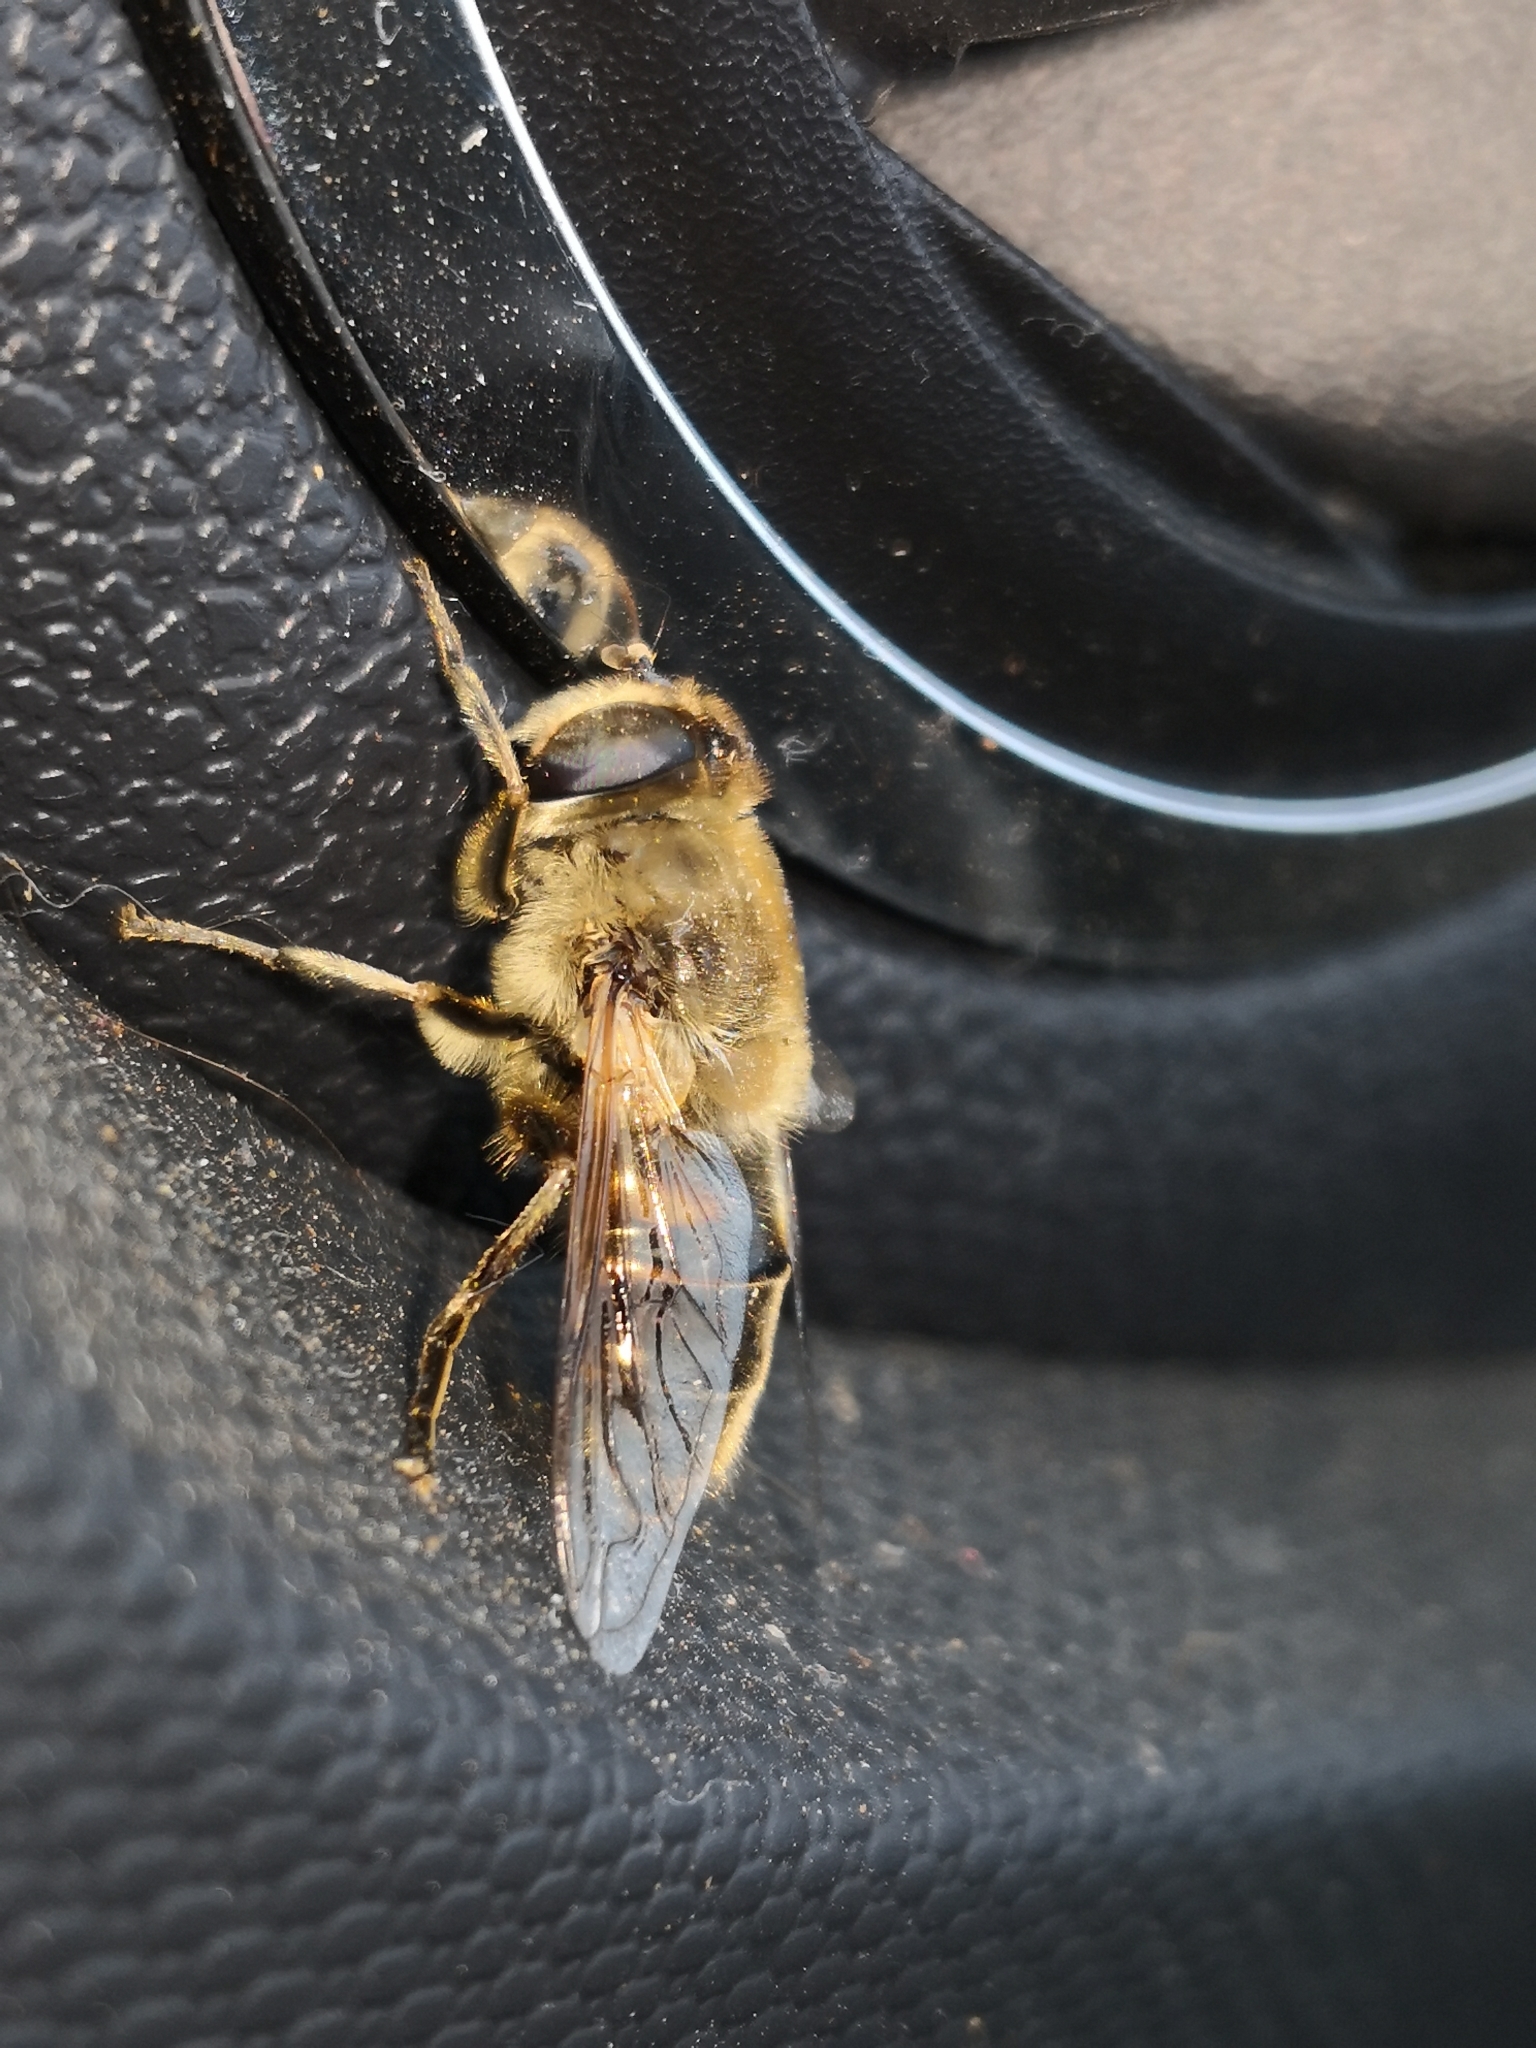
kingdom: Animalia
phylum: Arthropoda
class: Insecta
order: Diptera
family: Syrphidae
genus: Eristalis
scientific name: Eristalis tenax
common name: Drone fly
